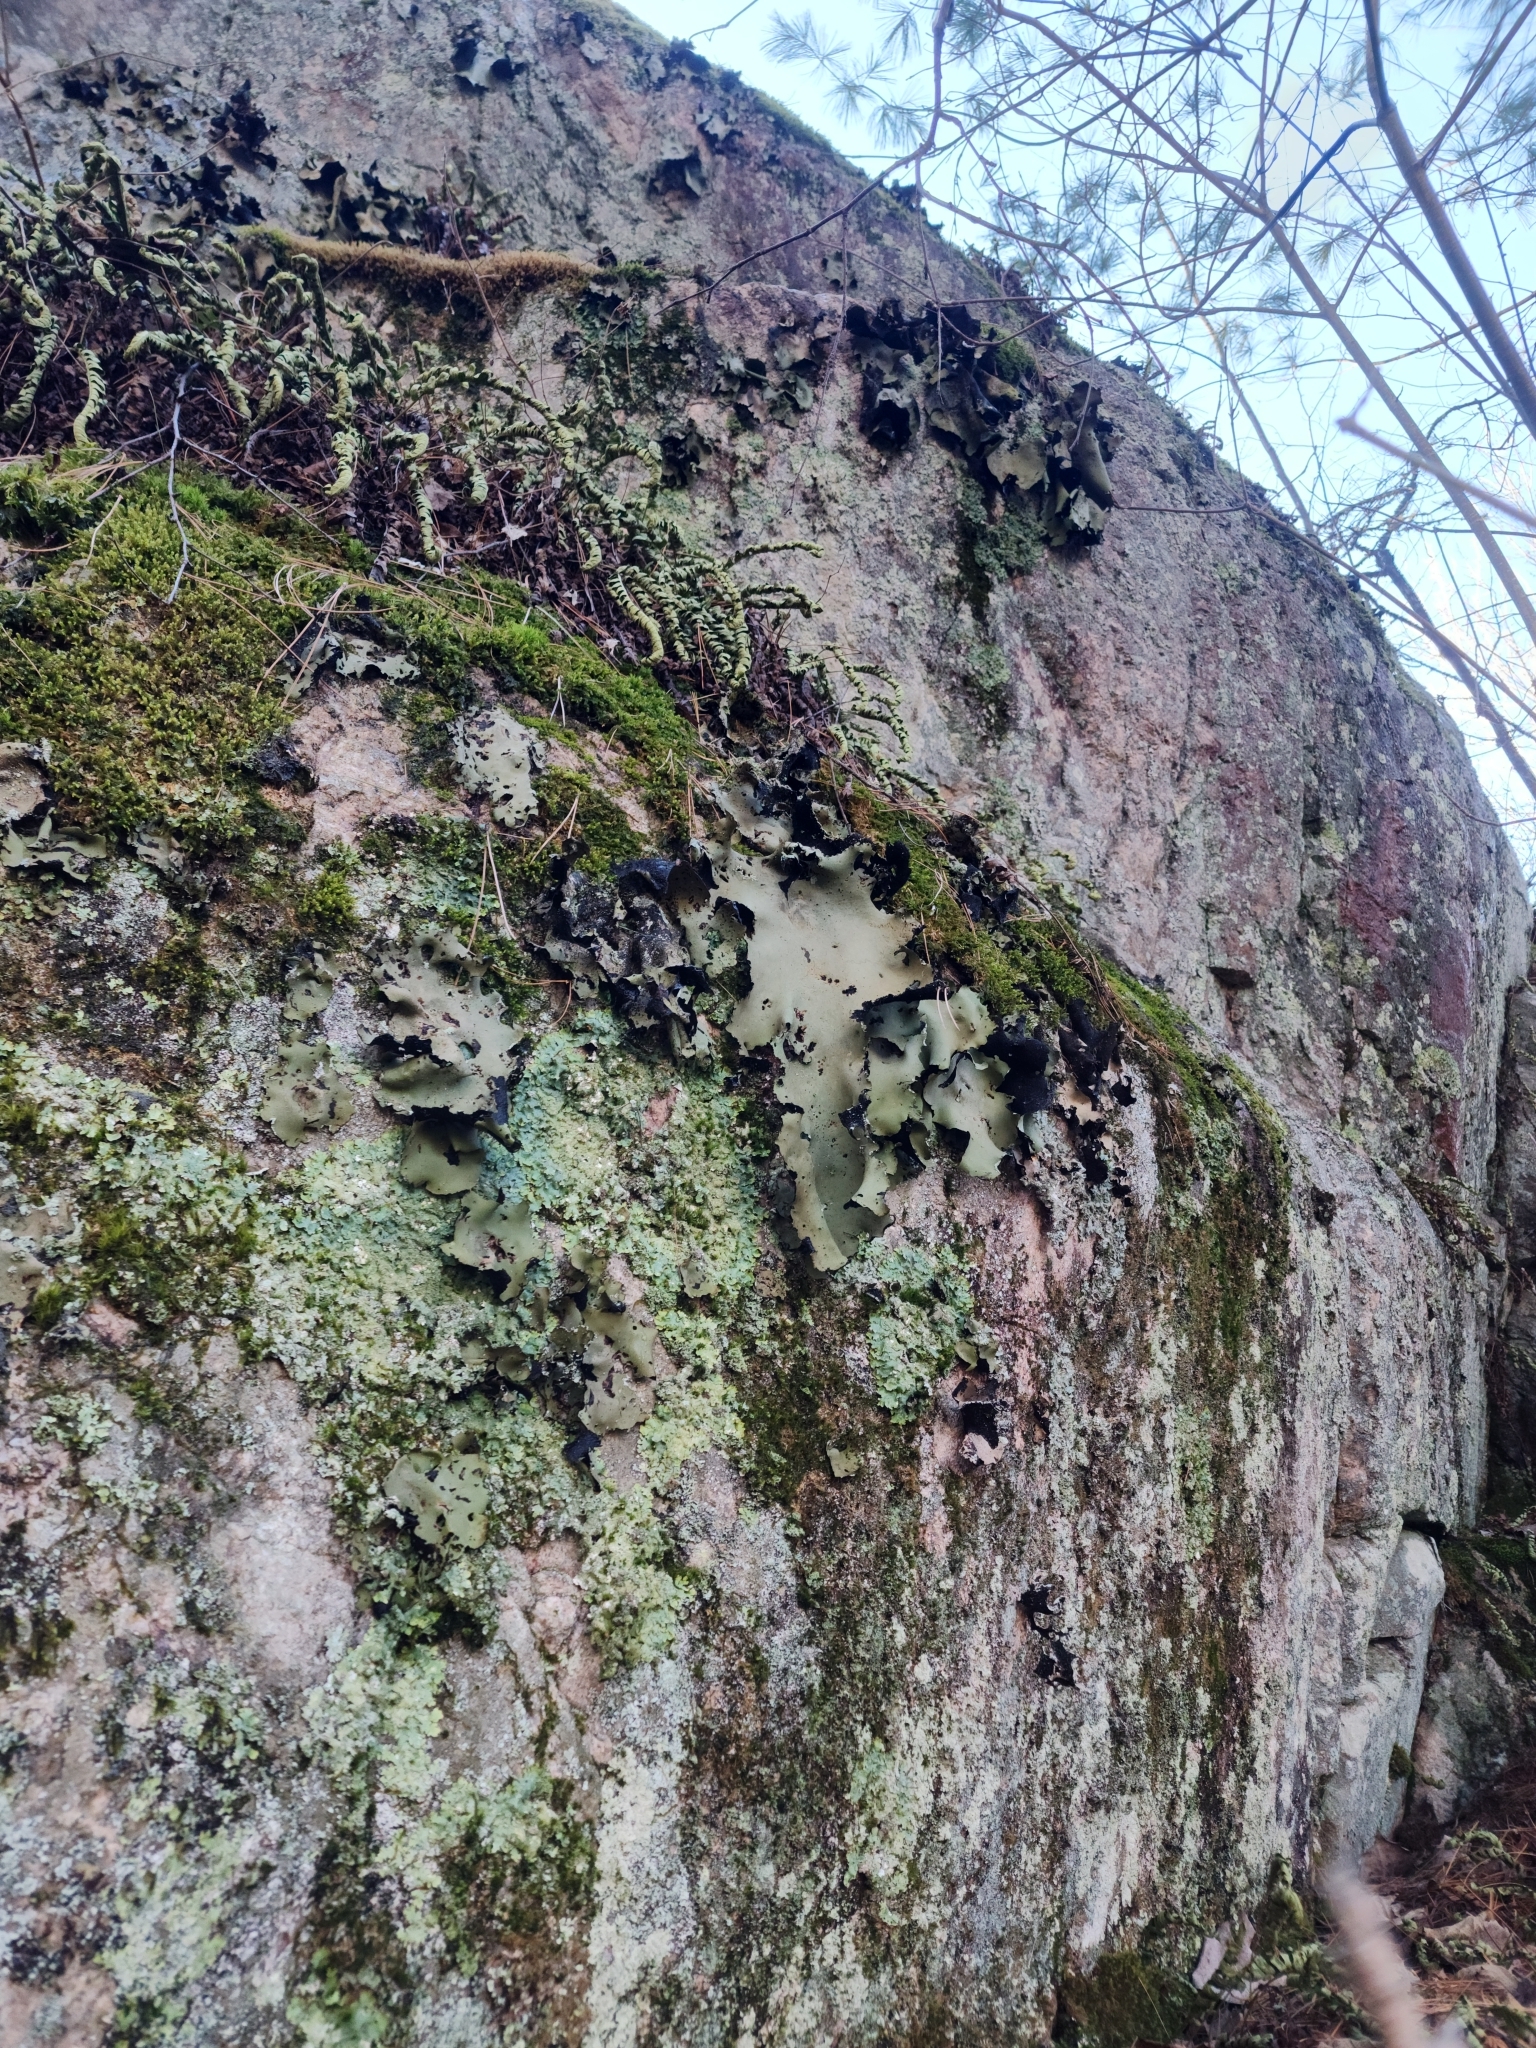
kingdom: Fungi
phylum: Ascomycota
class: Lecanoromycetes
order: Umbilicariales
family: Umbilicariaceae
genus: Umbilicaria
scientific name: Umbilicaria mammulata
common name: Smooth rock tripe
